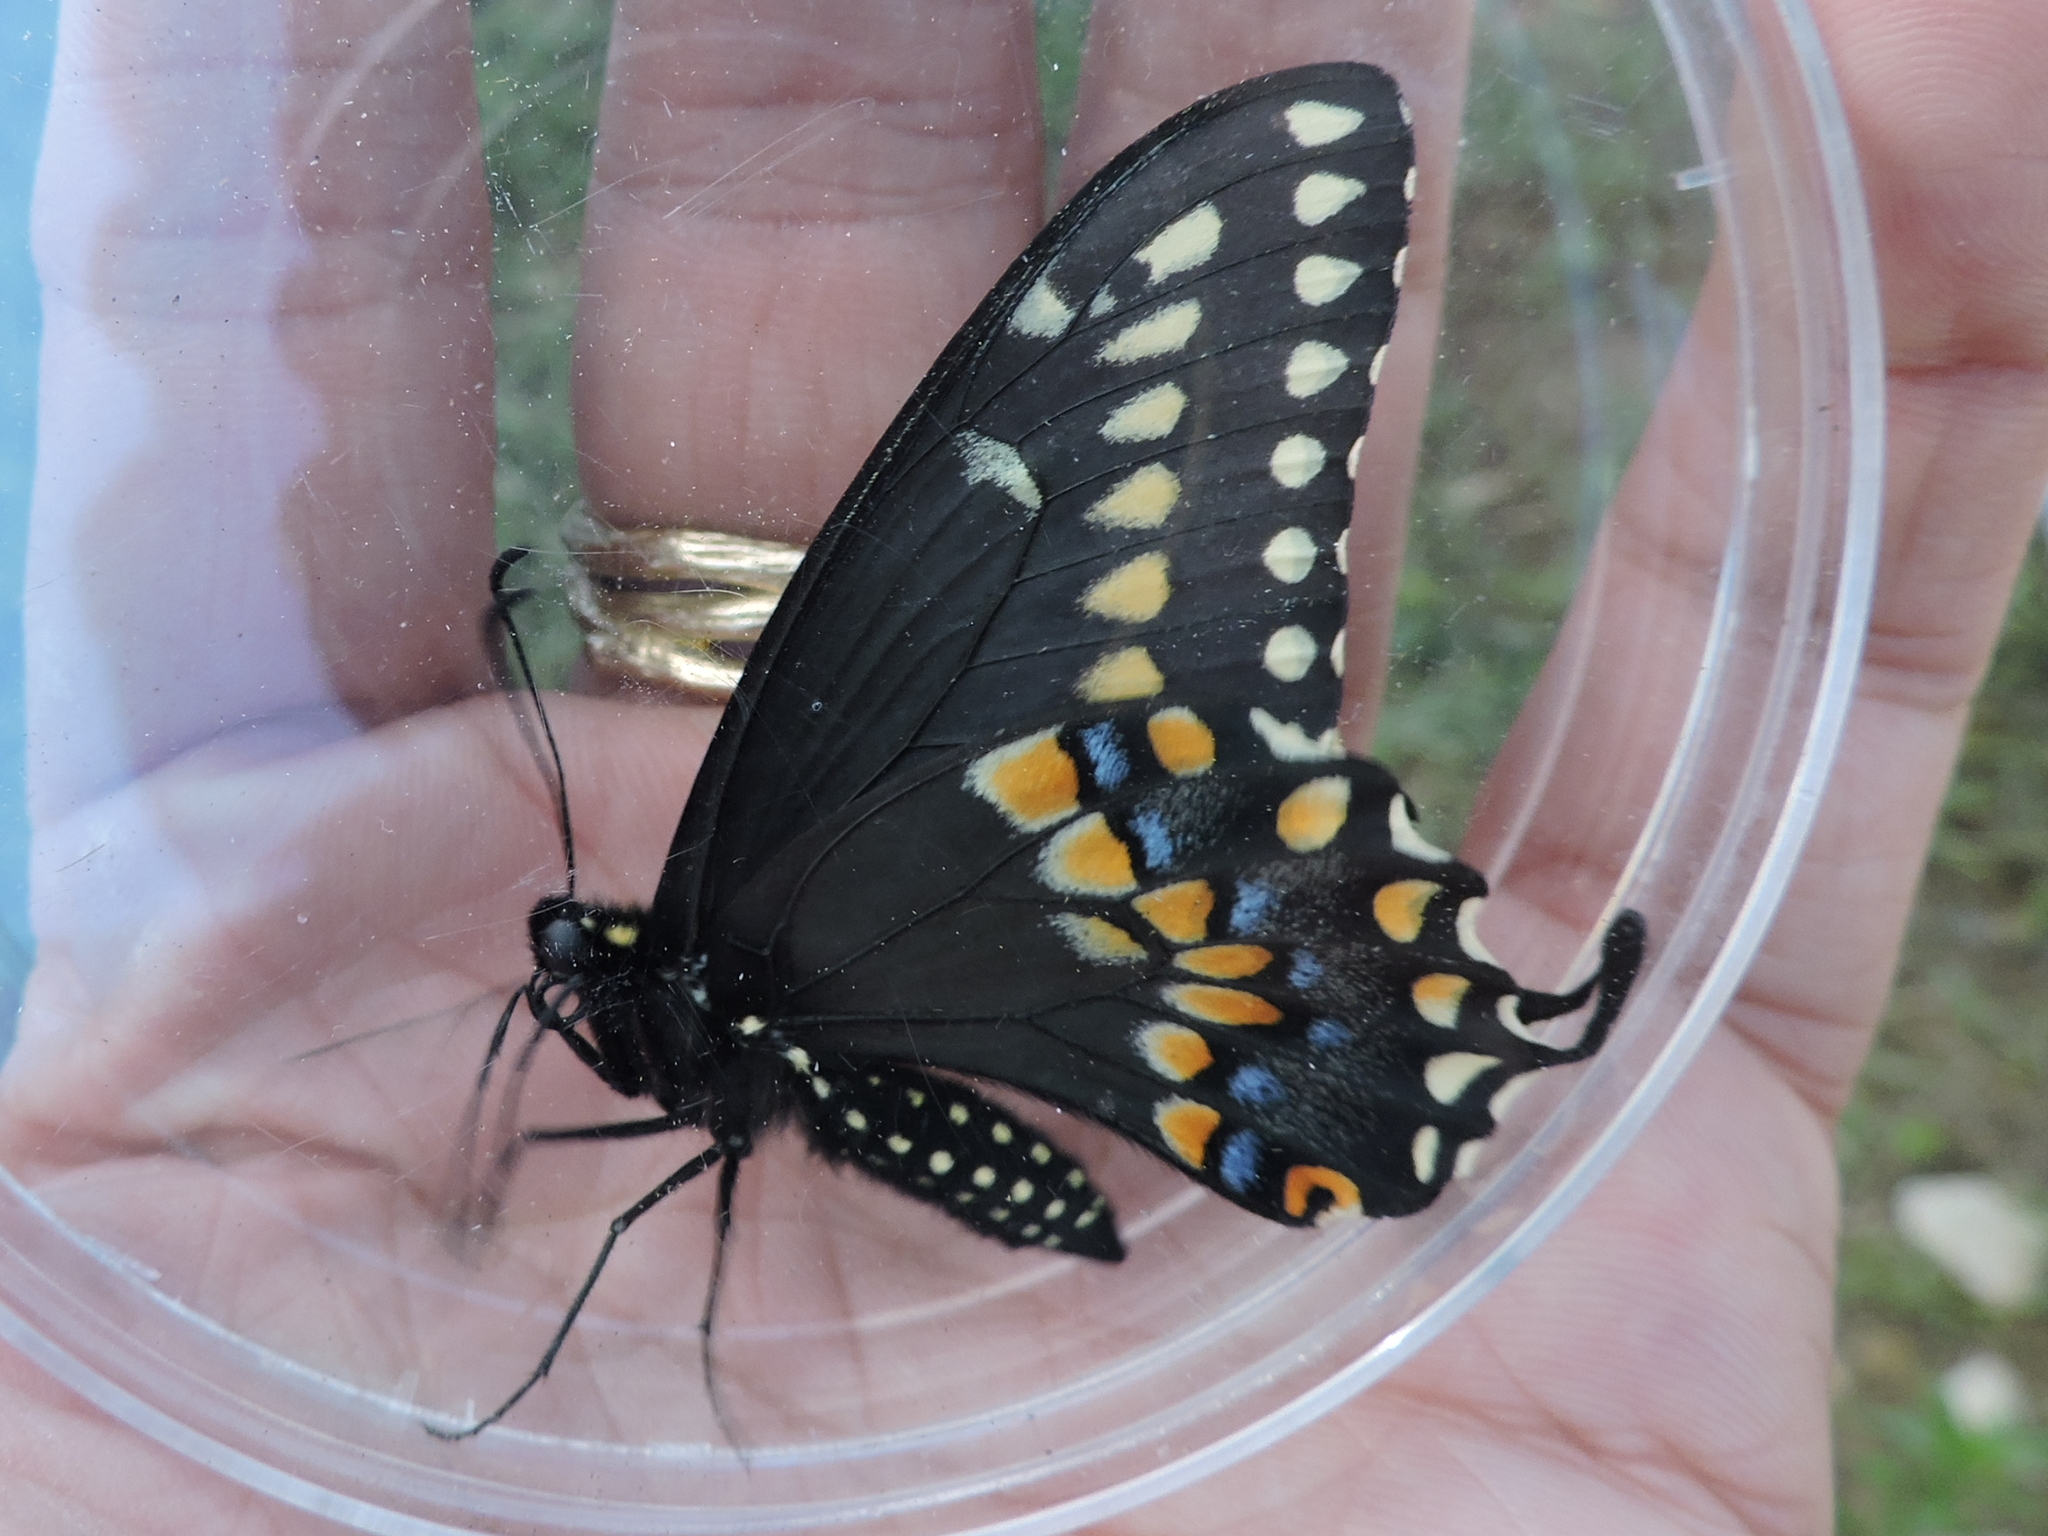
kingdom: Animalia
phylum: Arthropoda
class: Insecta
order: Lepidoptera
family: Papilionidae
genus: Papilio
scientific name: Papilio polyxenes
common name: Black swallowtail
